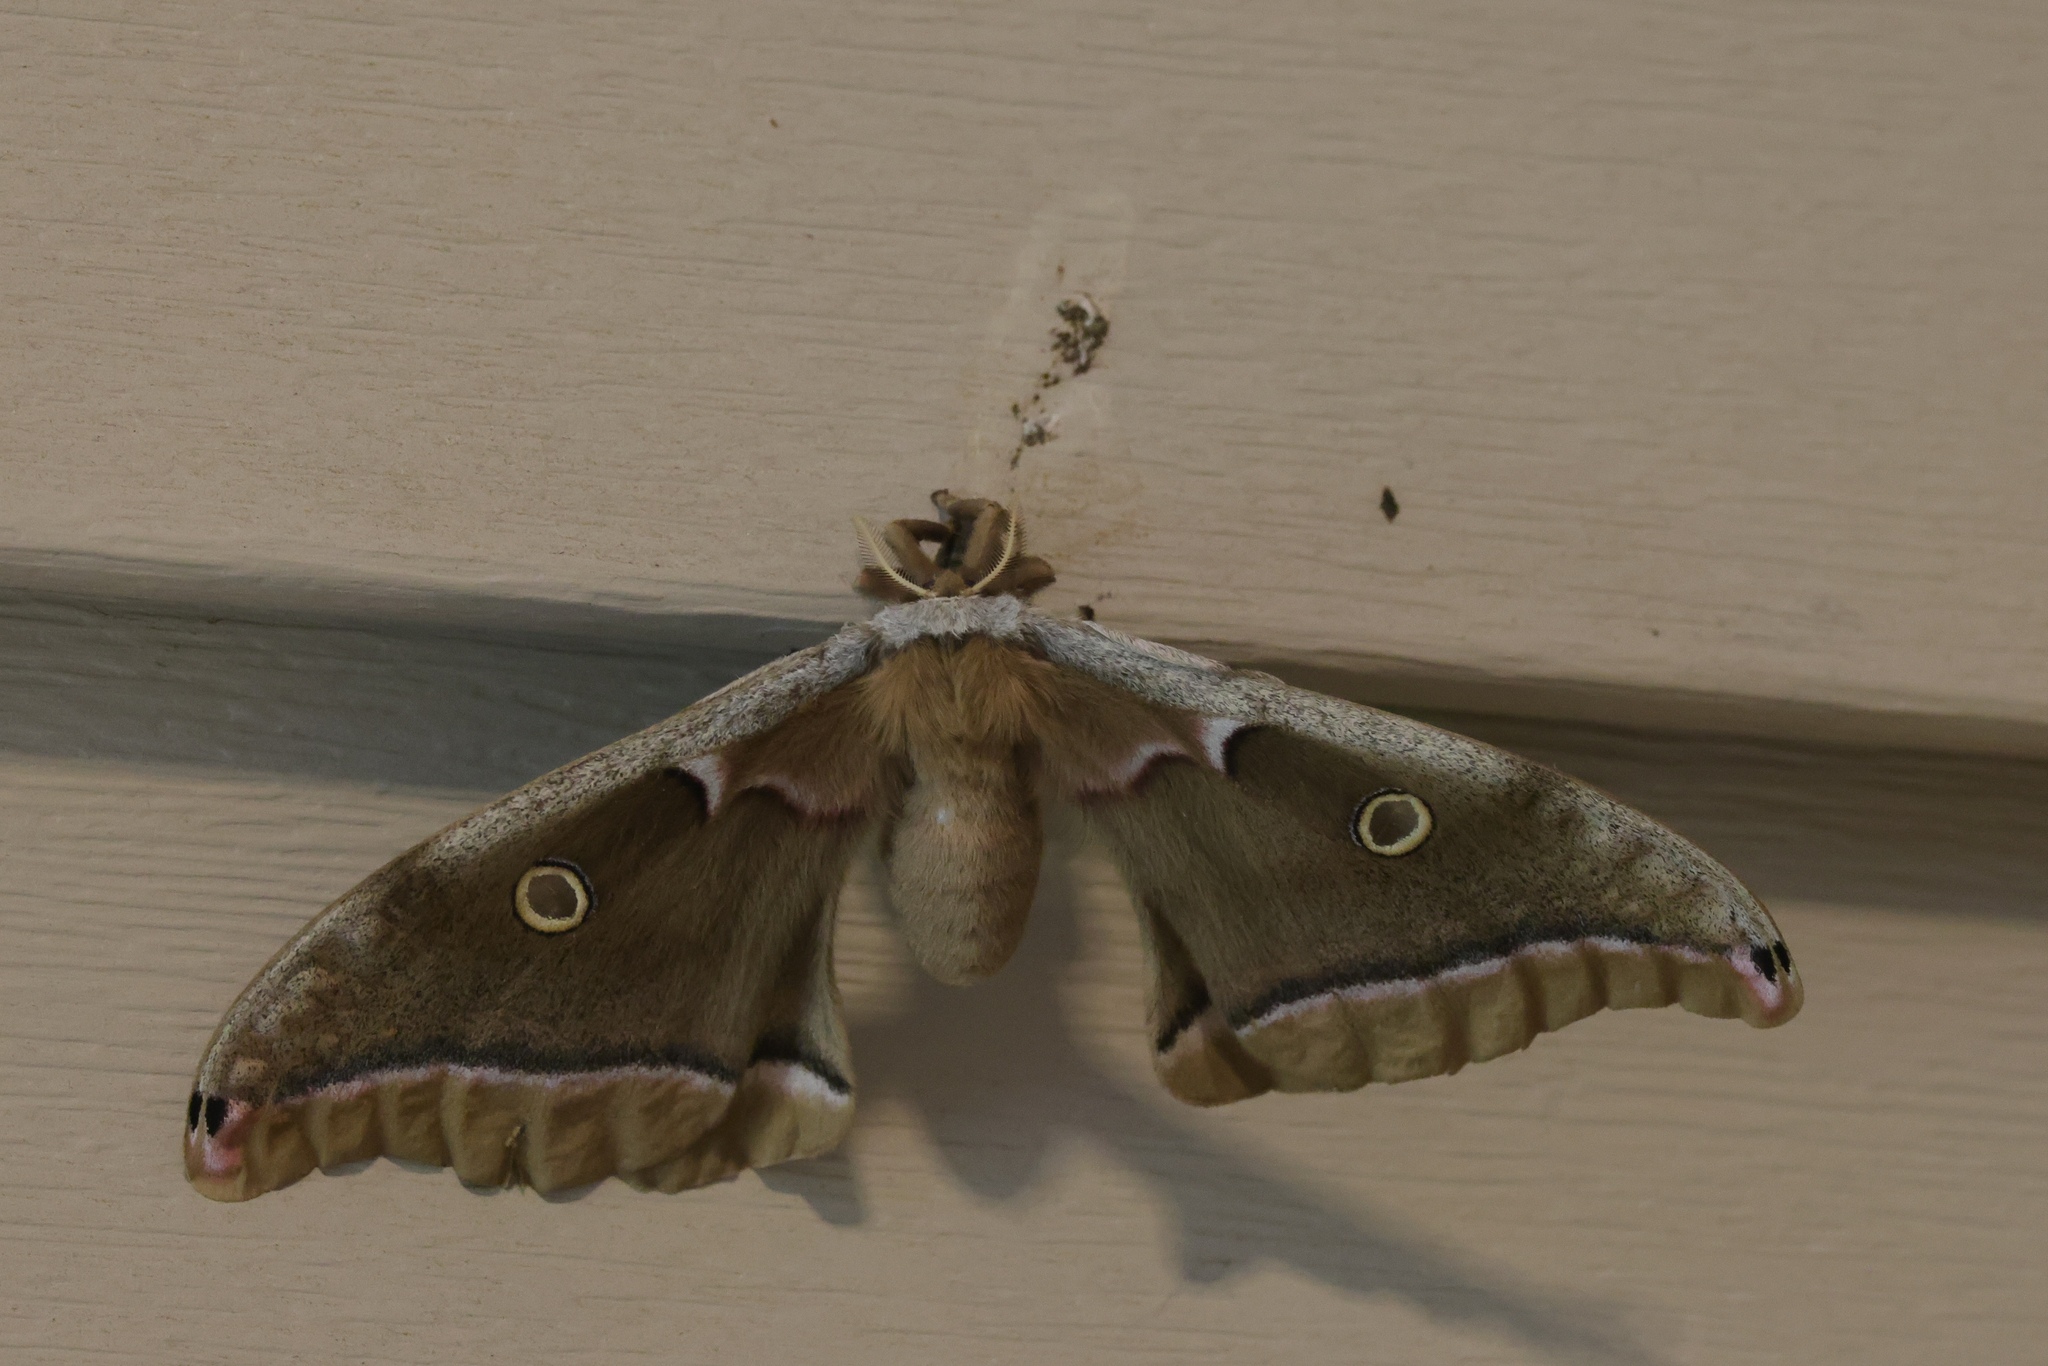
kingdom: Animalia
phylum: Arthropoda
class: Insecta
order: Lepidoptera
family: Saturniidae
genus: Antheraea
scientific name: Antheraea polyphemus
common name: Polyphemus moth
